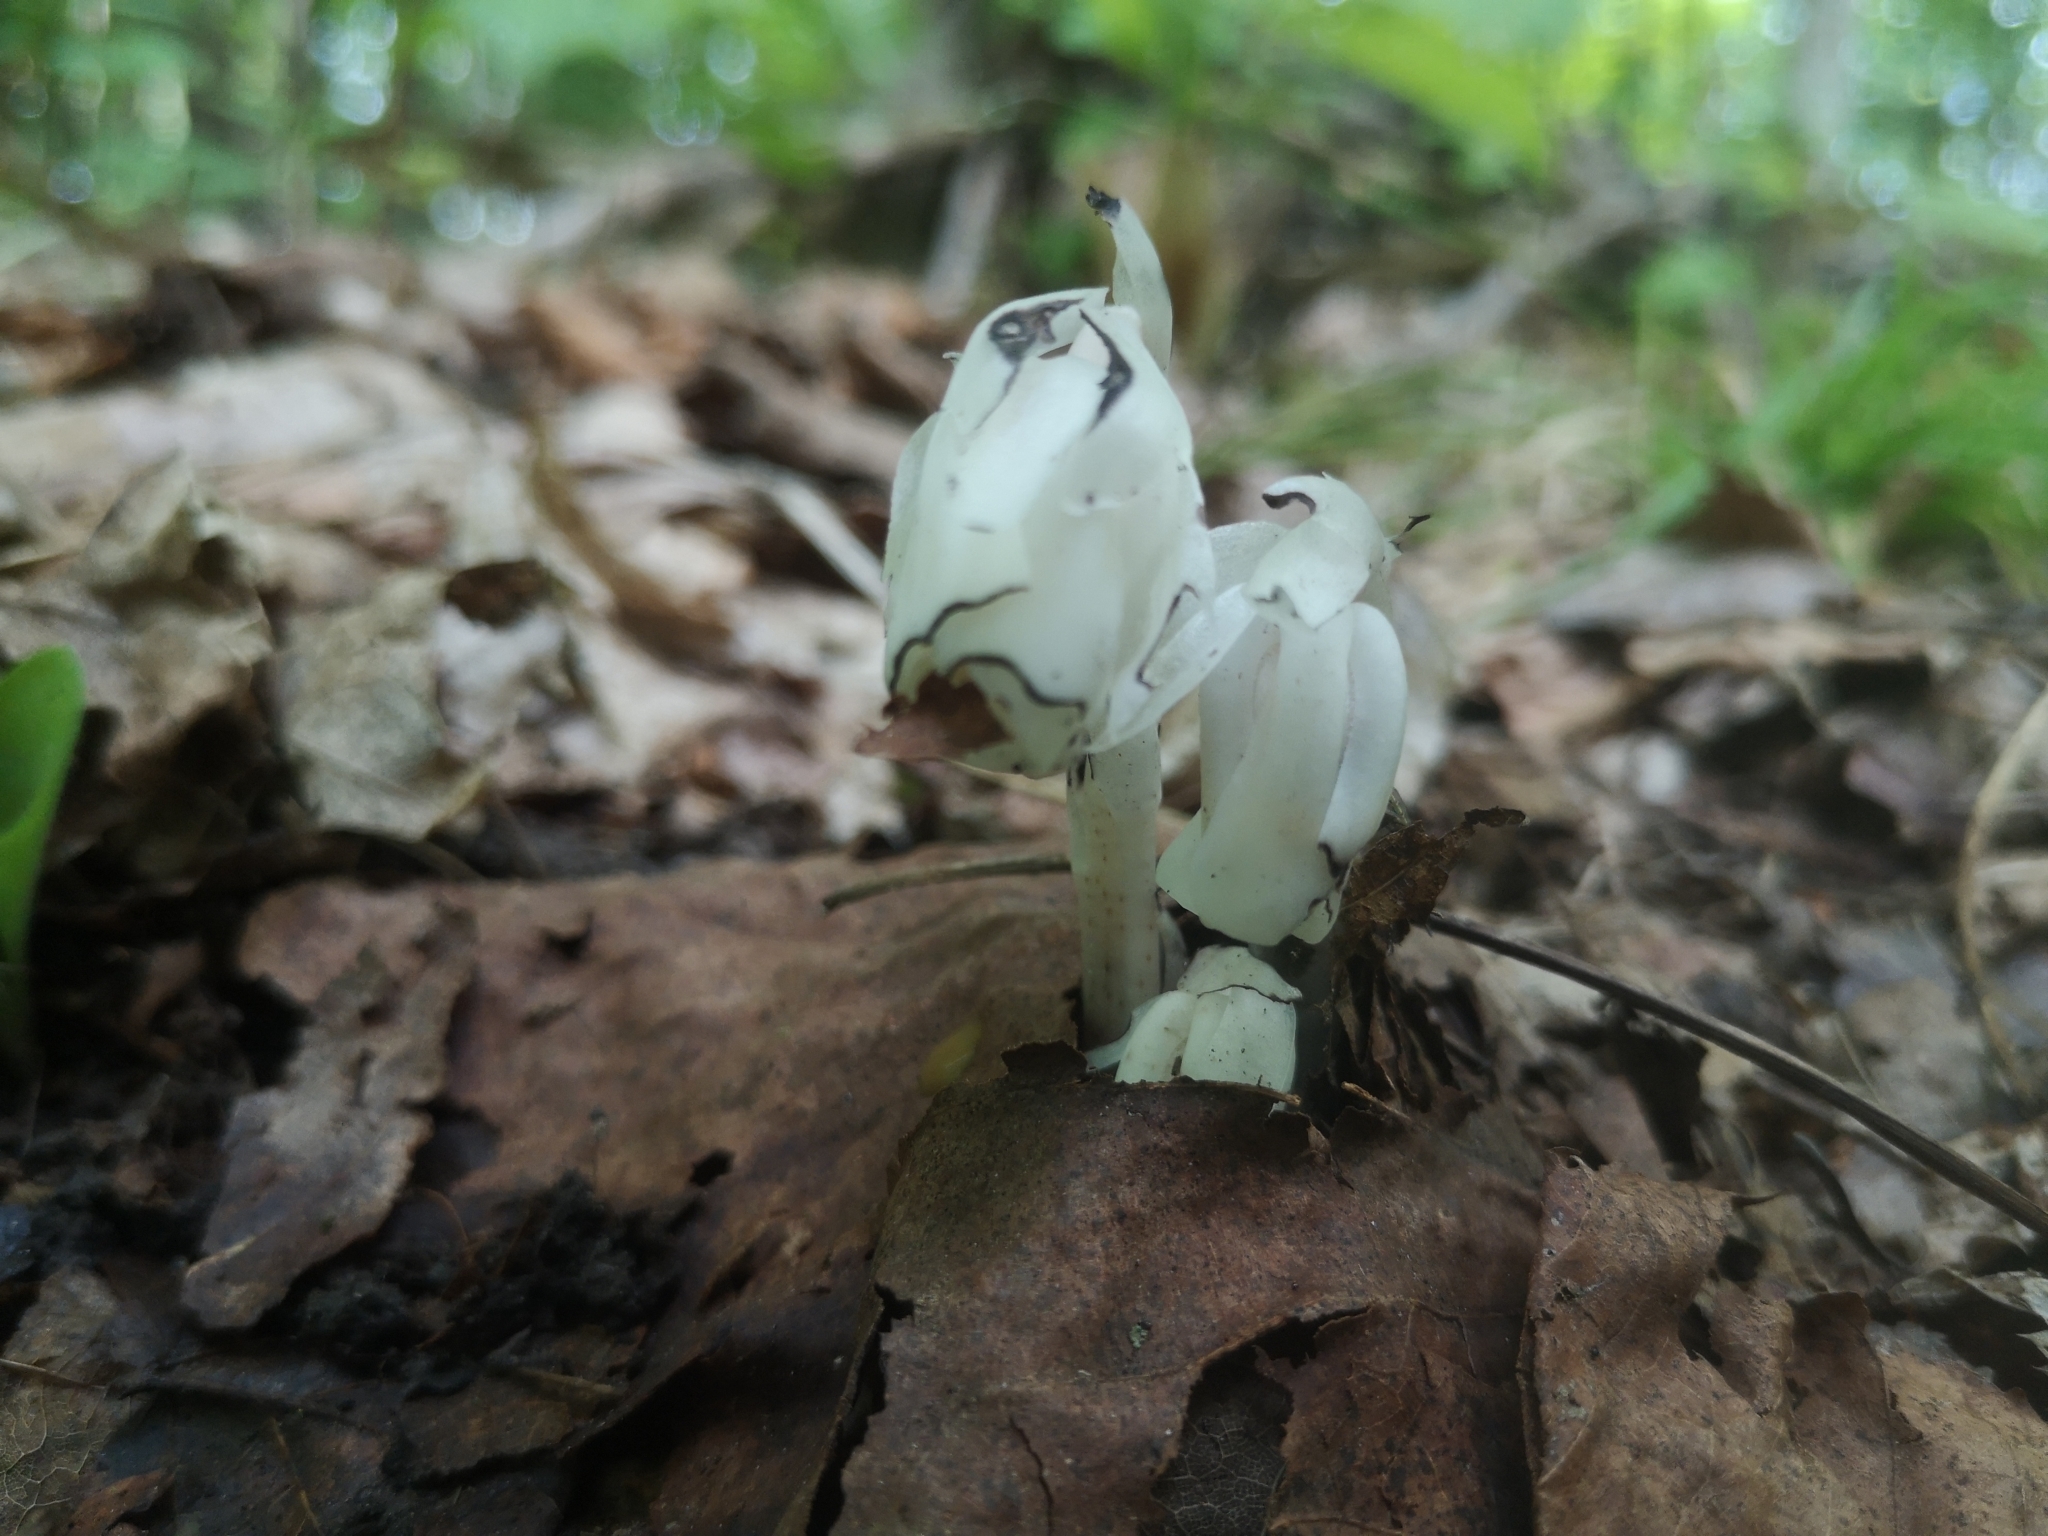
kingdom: Plantae
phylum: Tracheophyta
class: Magnoliopsida
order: Ericales
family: Ericaceae
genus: Monotropa
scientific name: Monotropa uniflora
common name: Convulsion root
